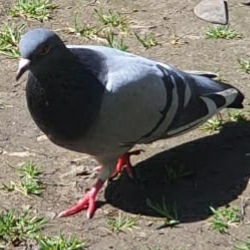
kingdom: Animalia
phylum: Chordata
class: Aves
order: Columbiformes
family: Columbidae
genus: Columba
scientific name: Columba livia
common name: Rock pigeon
